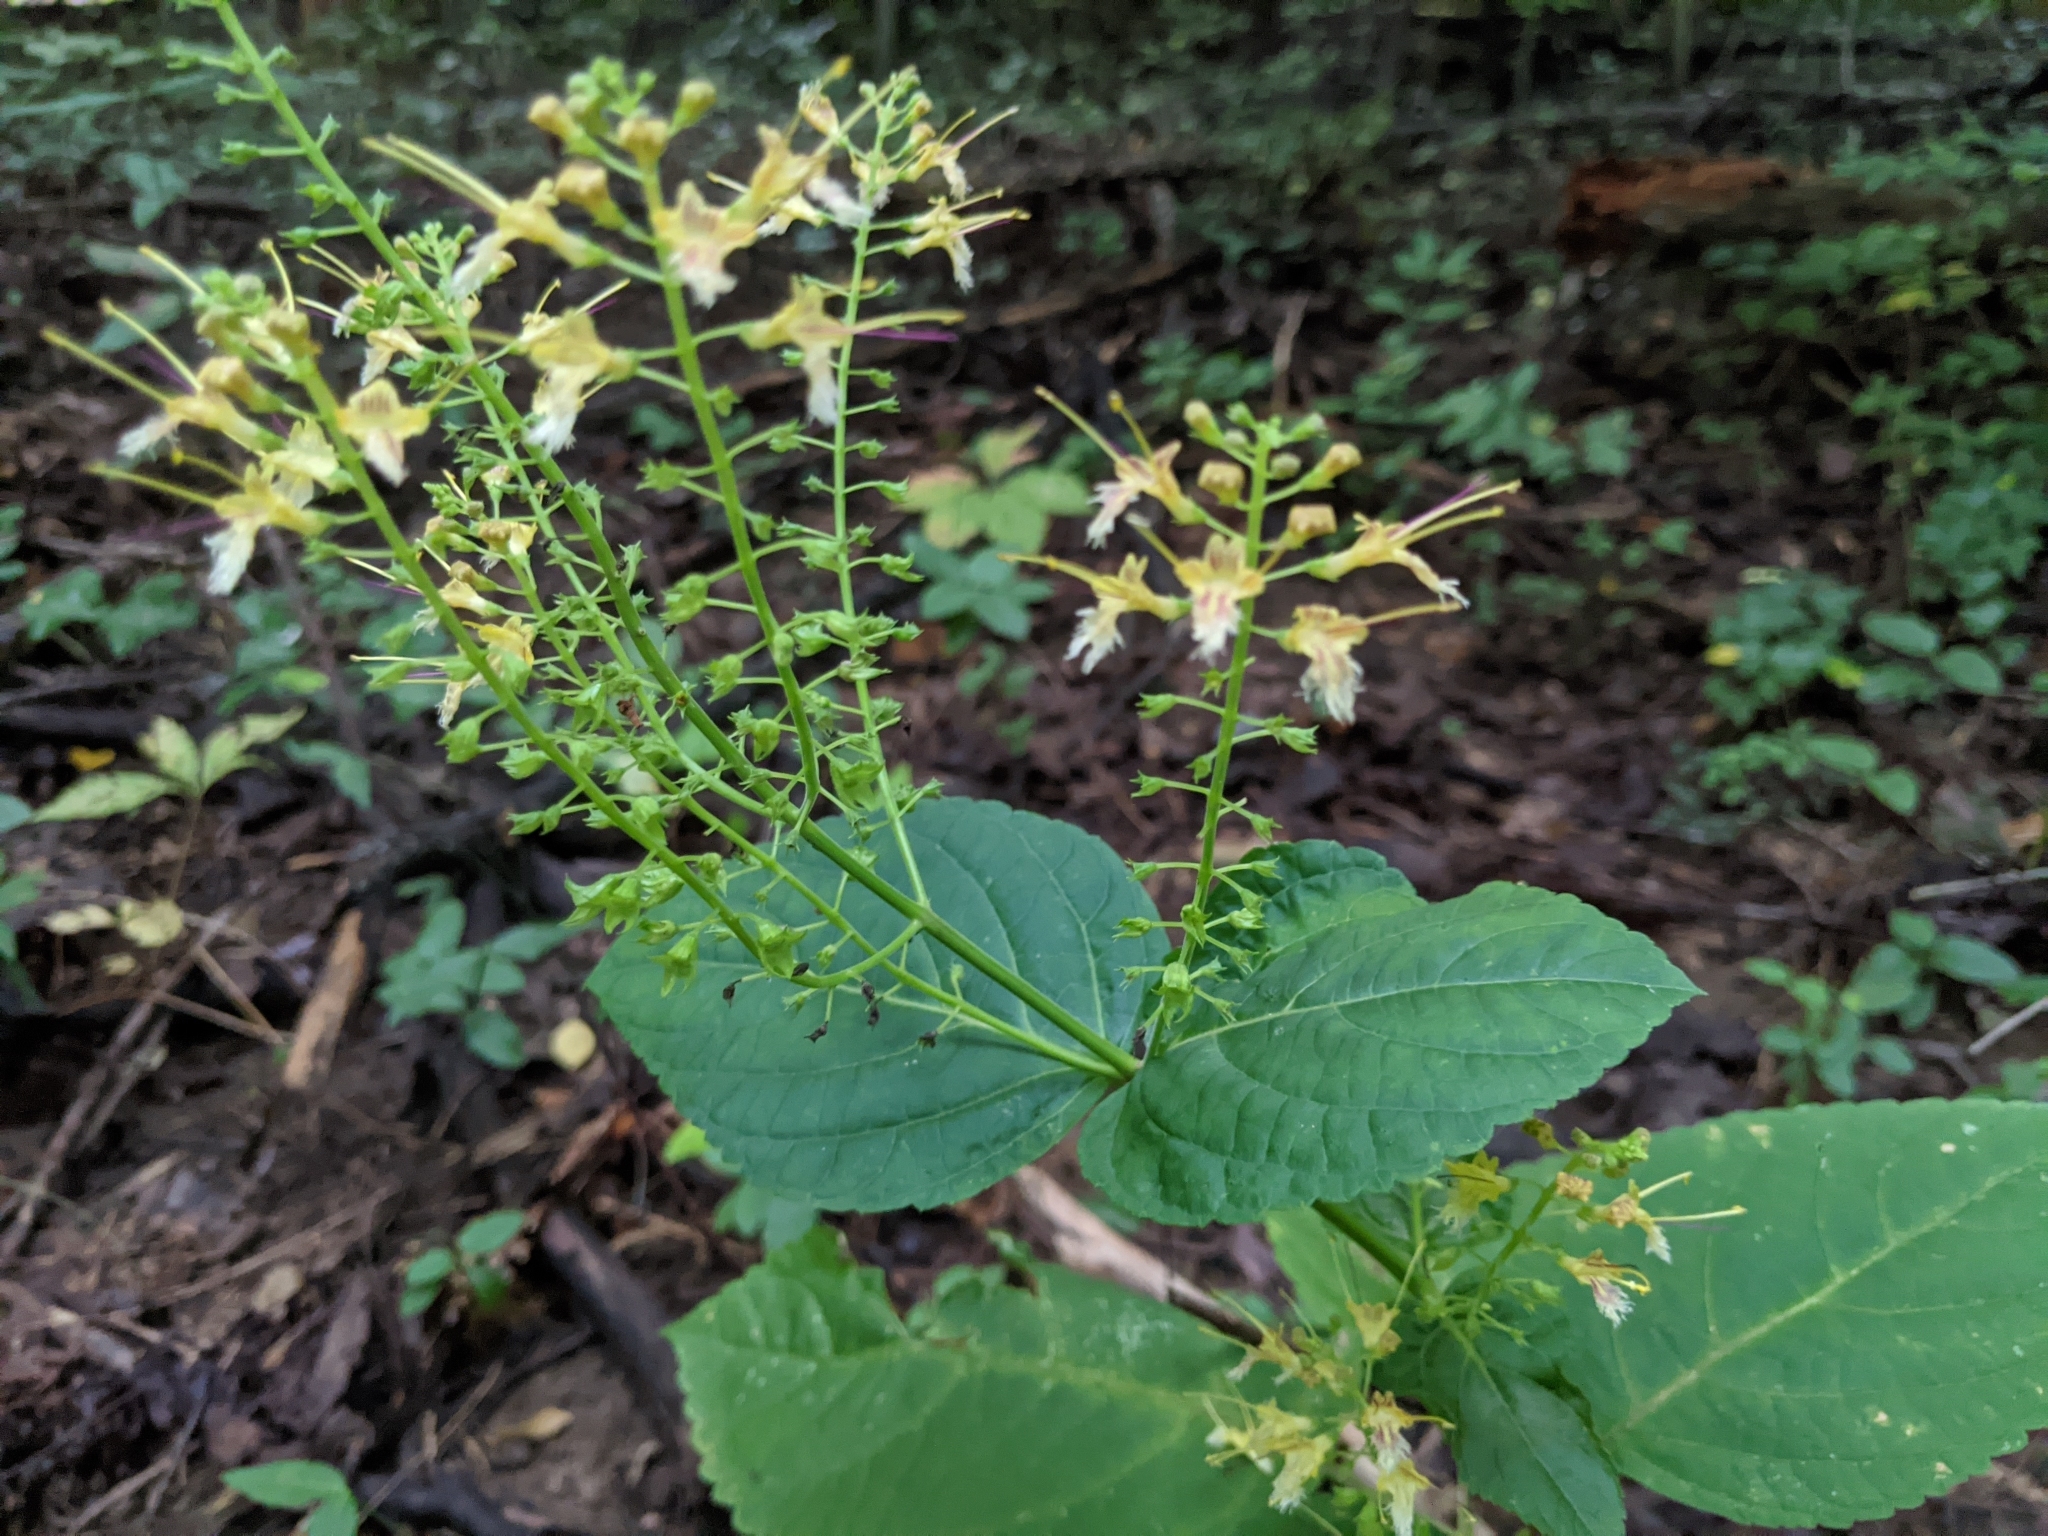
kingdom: Plantae
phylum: Tracheophyta
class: Magnoliopsida
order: Lamiales
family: Lamiaceae
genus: Collinsonia
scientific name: Collinsonia canadensis
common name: Northern horsebalm
